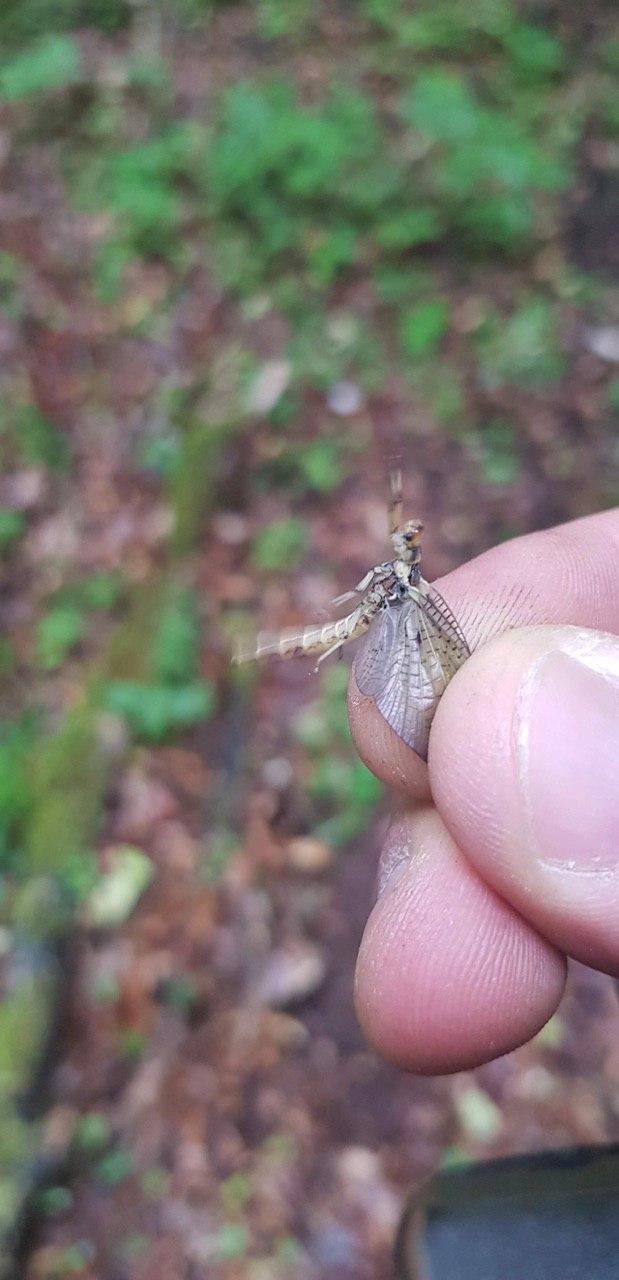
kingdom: Animalia
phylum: Arthropoda
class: Insecta
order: Ephemeroptera
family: Ephemeridae
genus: Ephemera
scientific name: Ephemera danica
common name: Green dun
